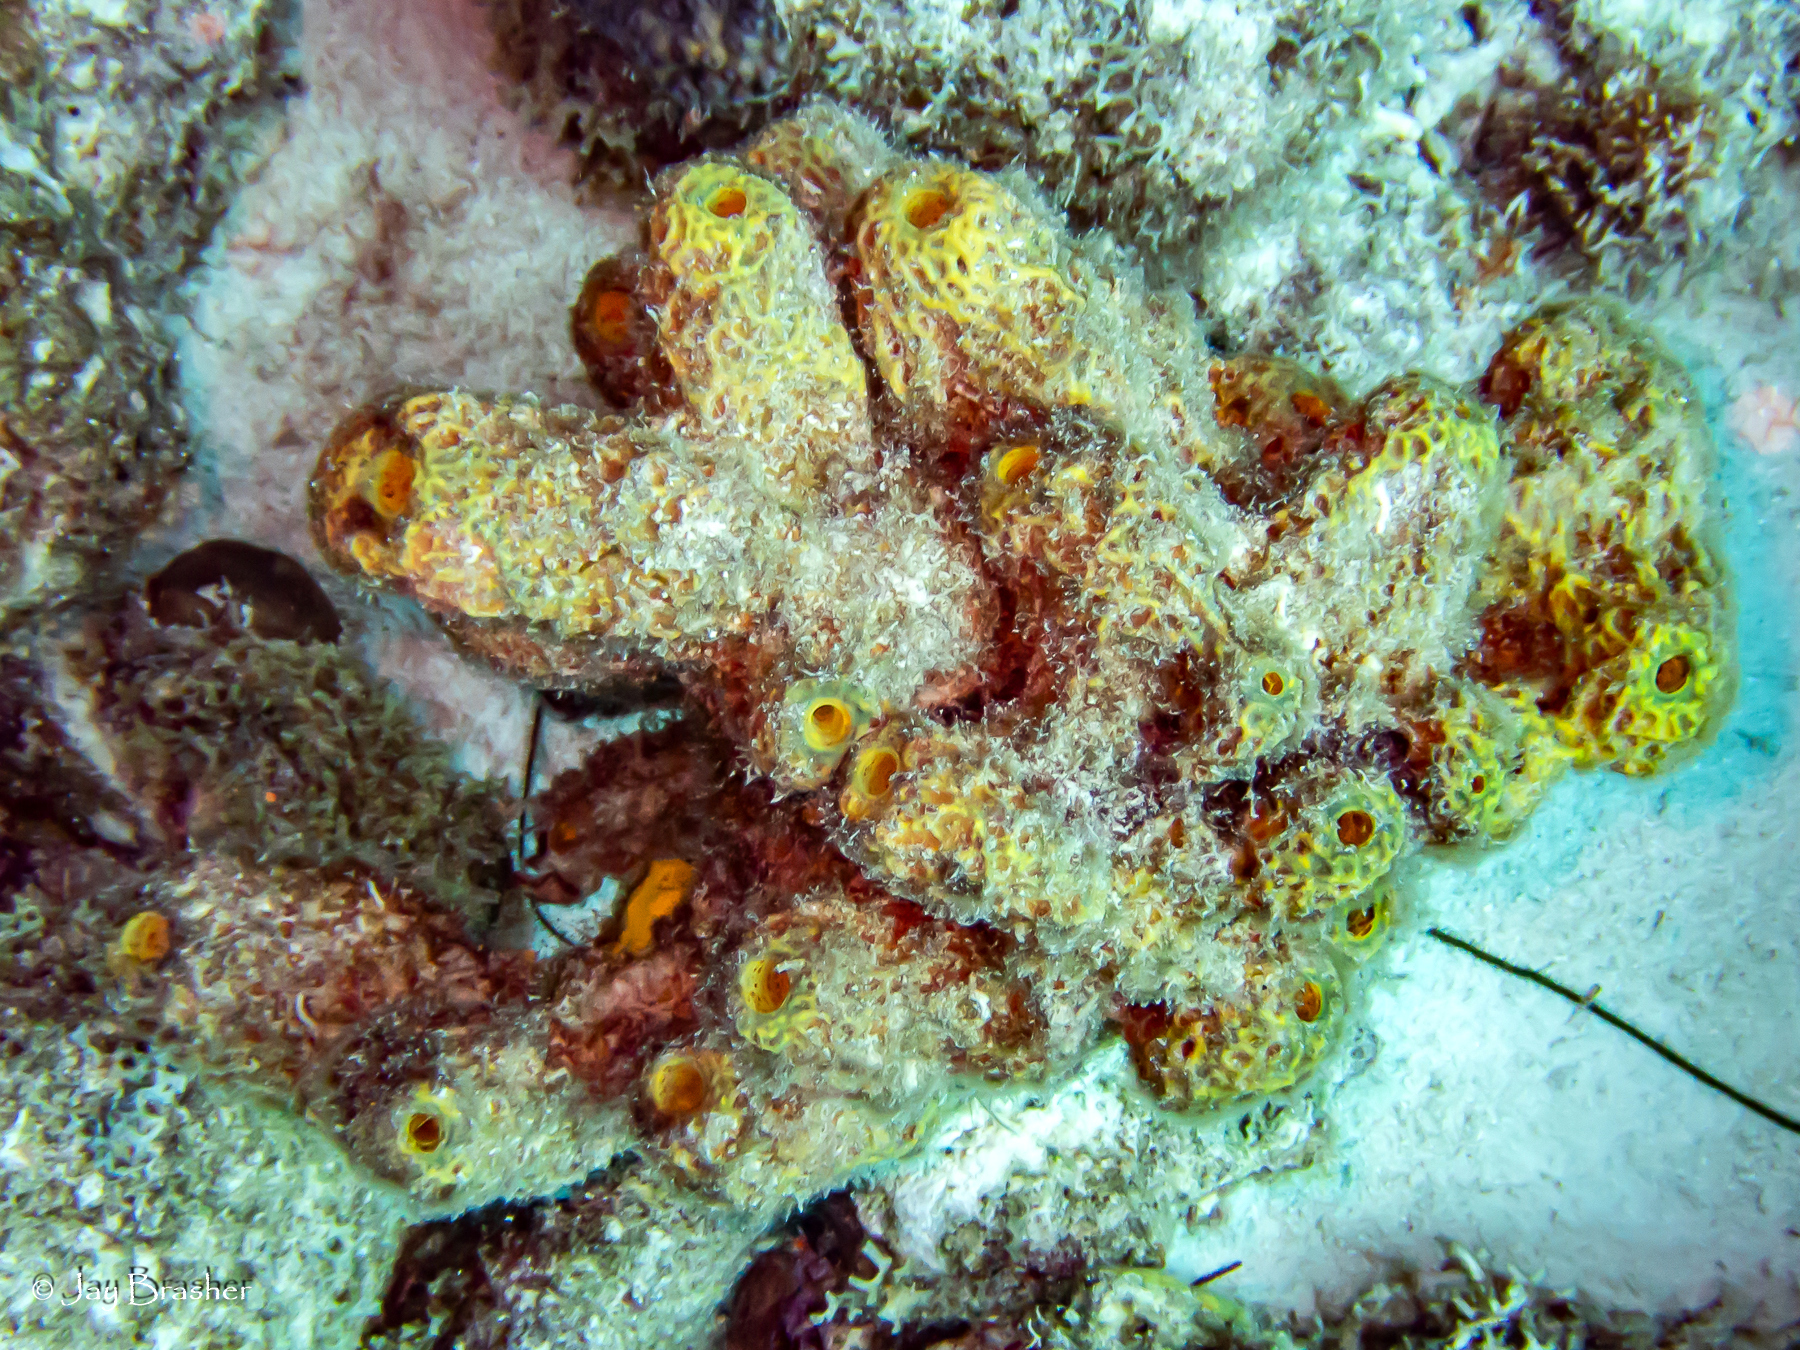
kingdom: Animalia
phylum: Porifera
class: Demospongiae
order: Verongiida
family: Aplysinidae
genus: Verongula
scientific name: Verongula rigida
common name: Pitted sponge
